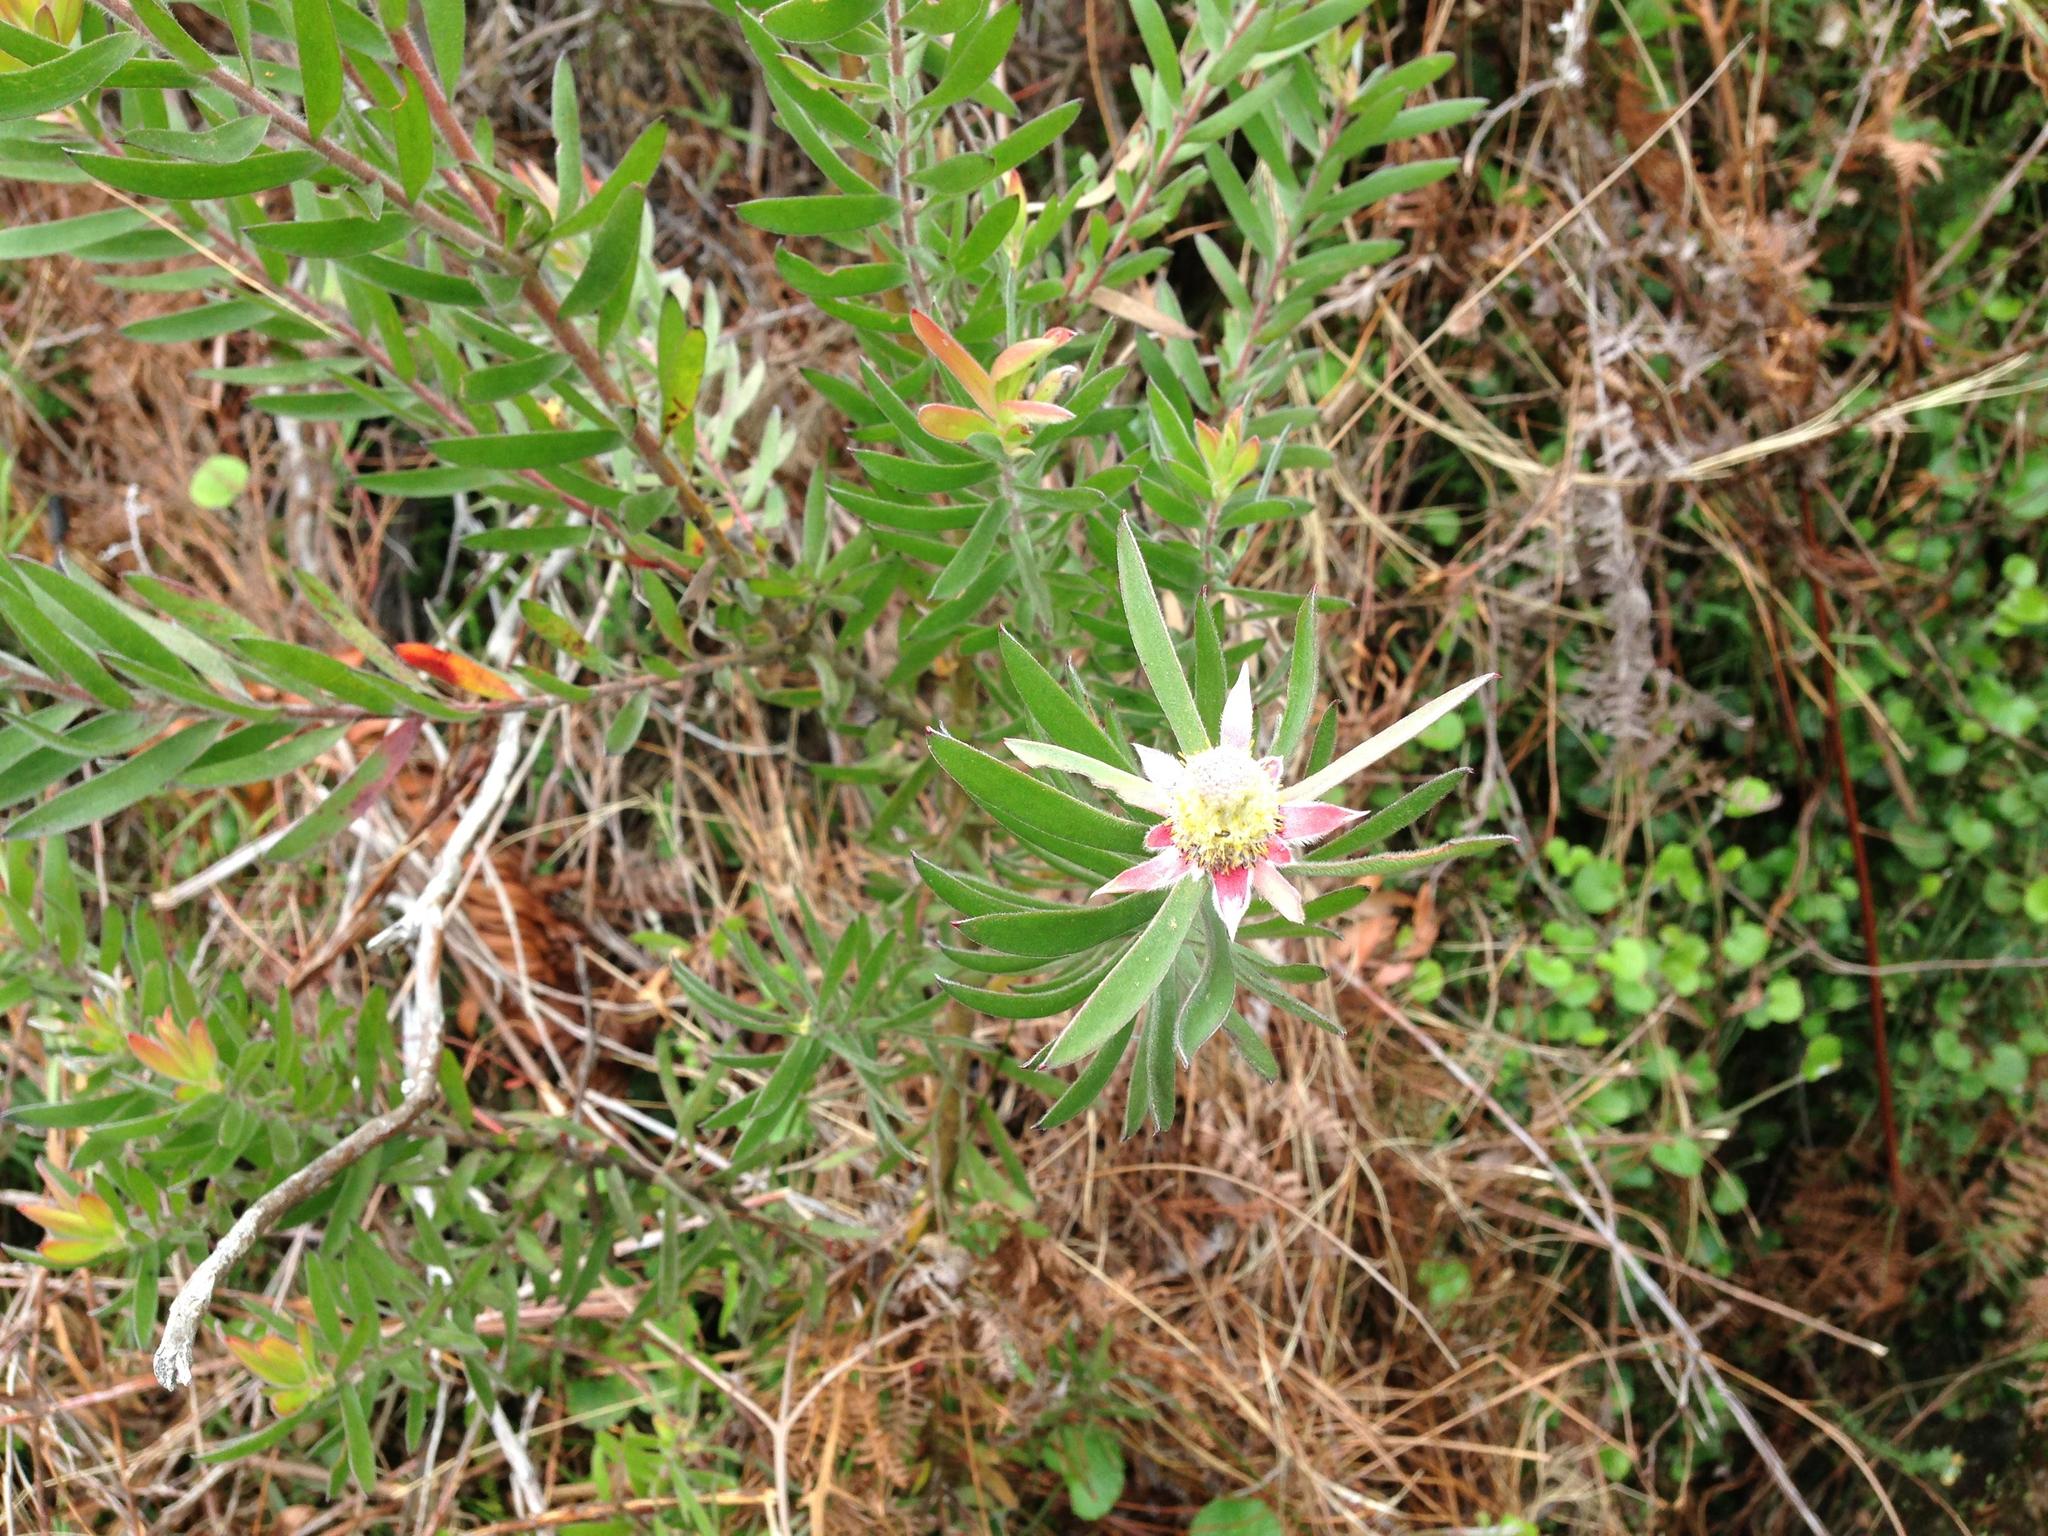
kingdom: Plantae
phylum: Tracheophyta
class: Magnoliopsida
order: Proteales
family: Proteaceae
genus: Leucadendron
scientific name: Leucadendron conicum
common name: Garden route conebush
